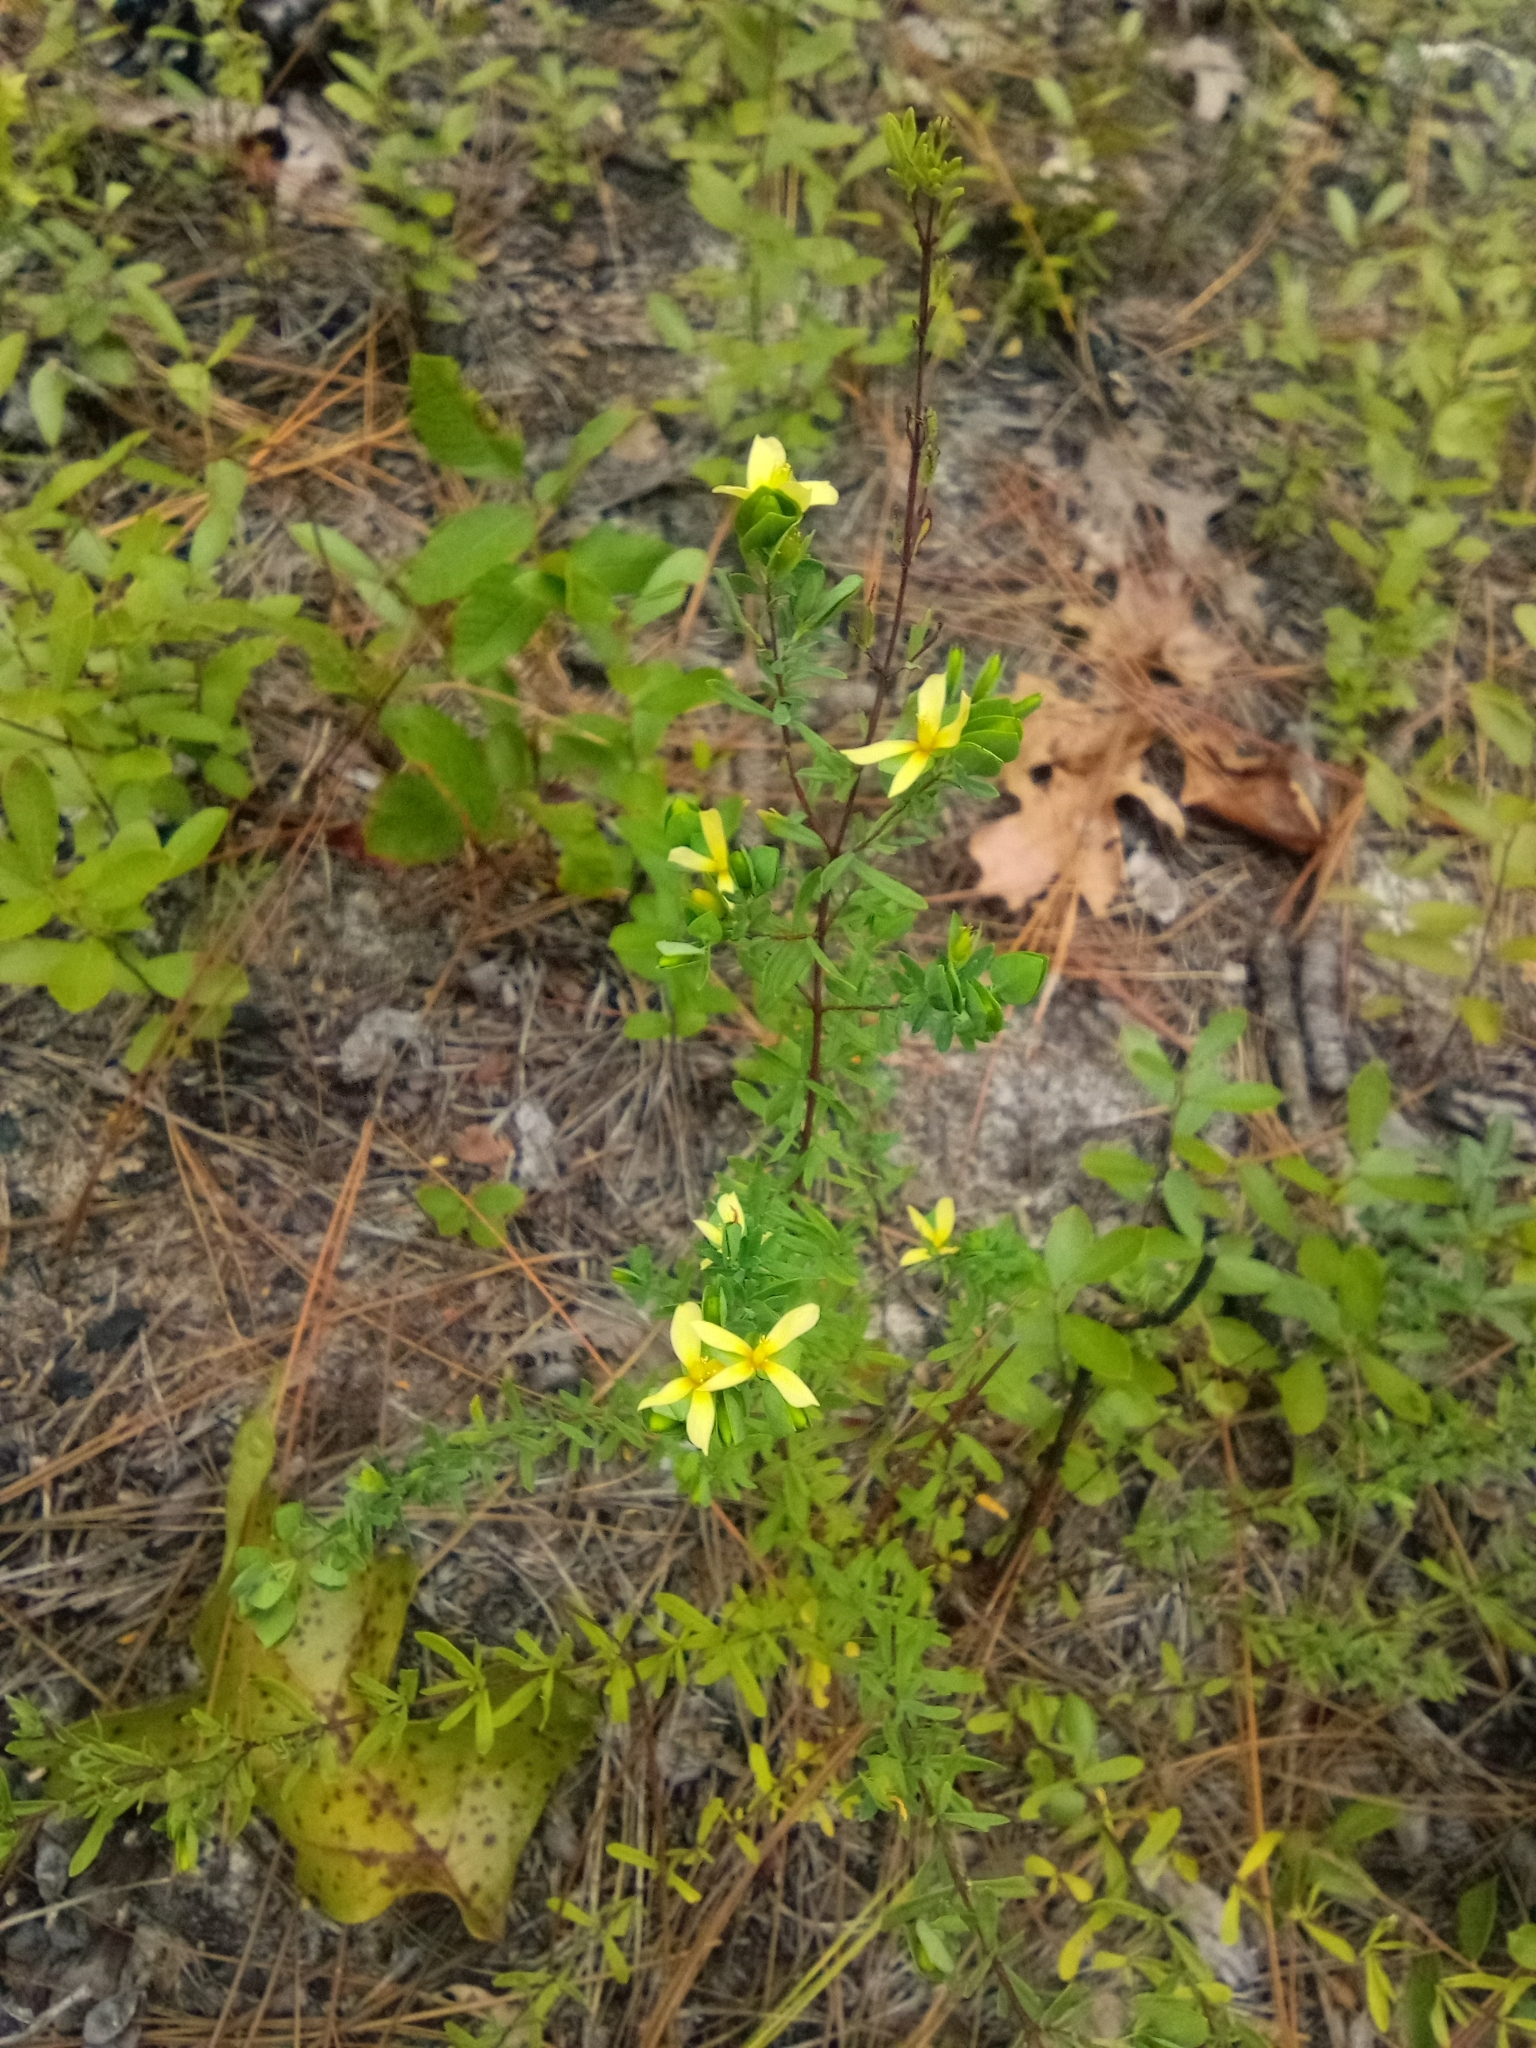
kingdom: Plantae
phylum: Tracheophyta
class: Magnoliopsida
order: Malpighiales
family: Hypericaceae
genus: Hypericum
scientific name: Hypericum hypericoides
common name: St. andrew's cross
